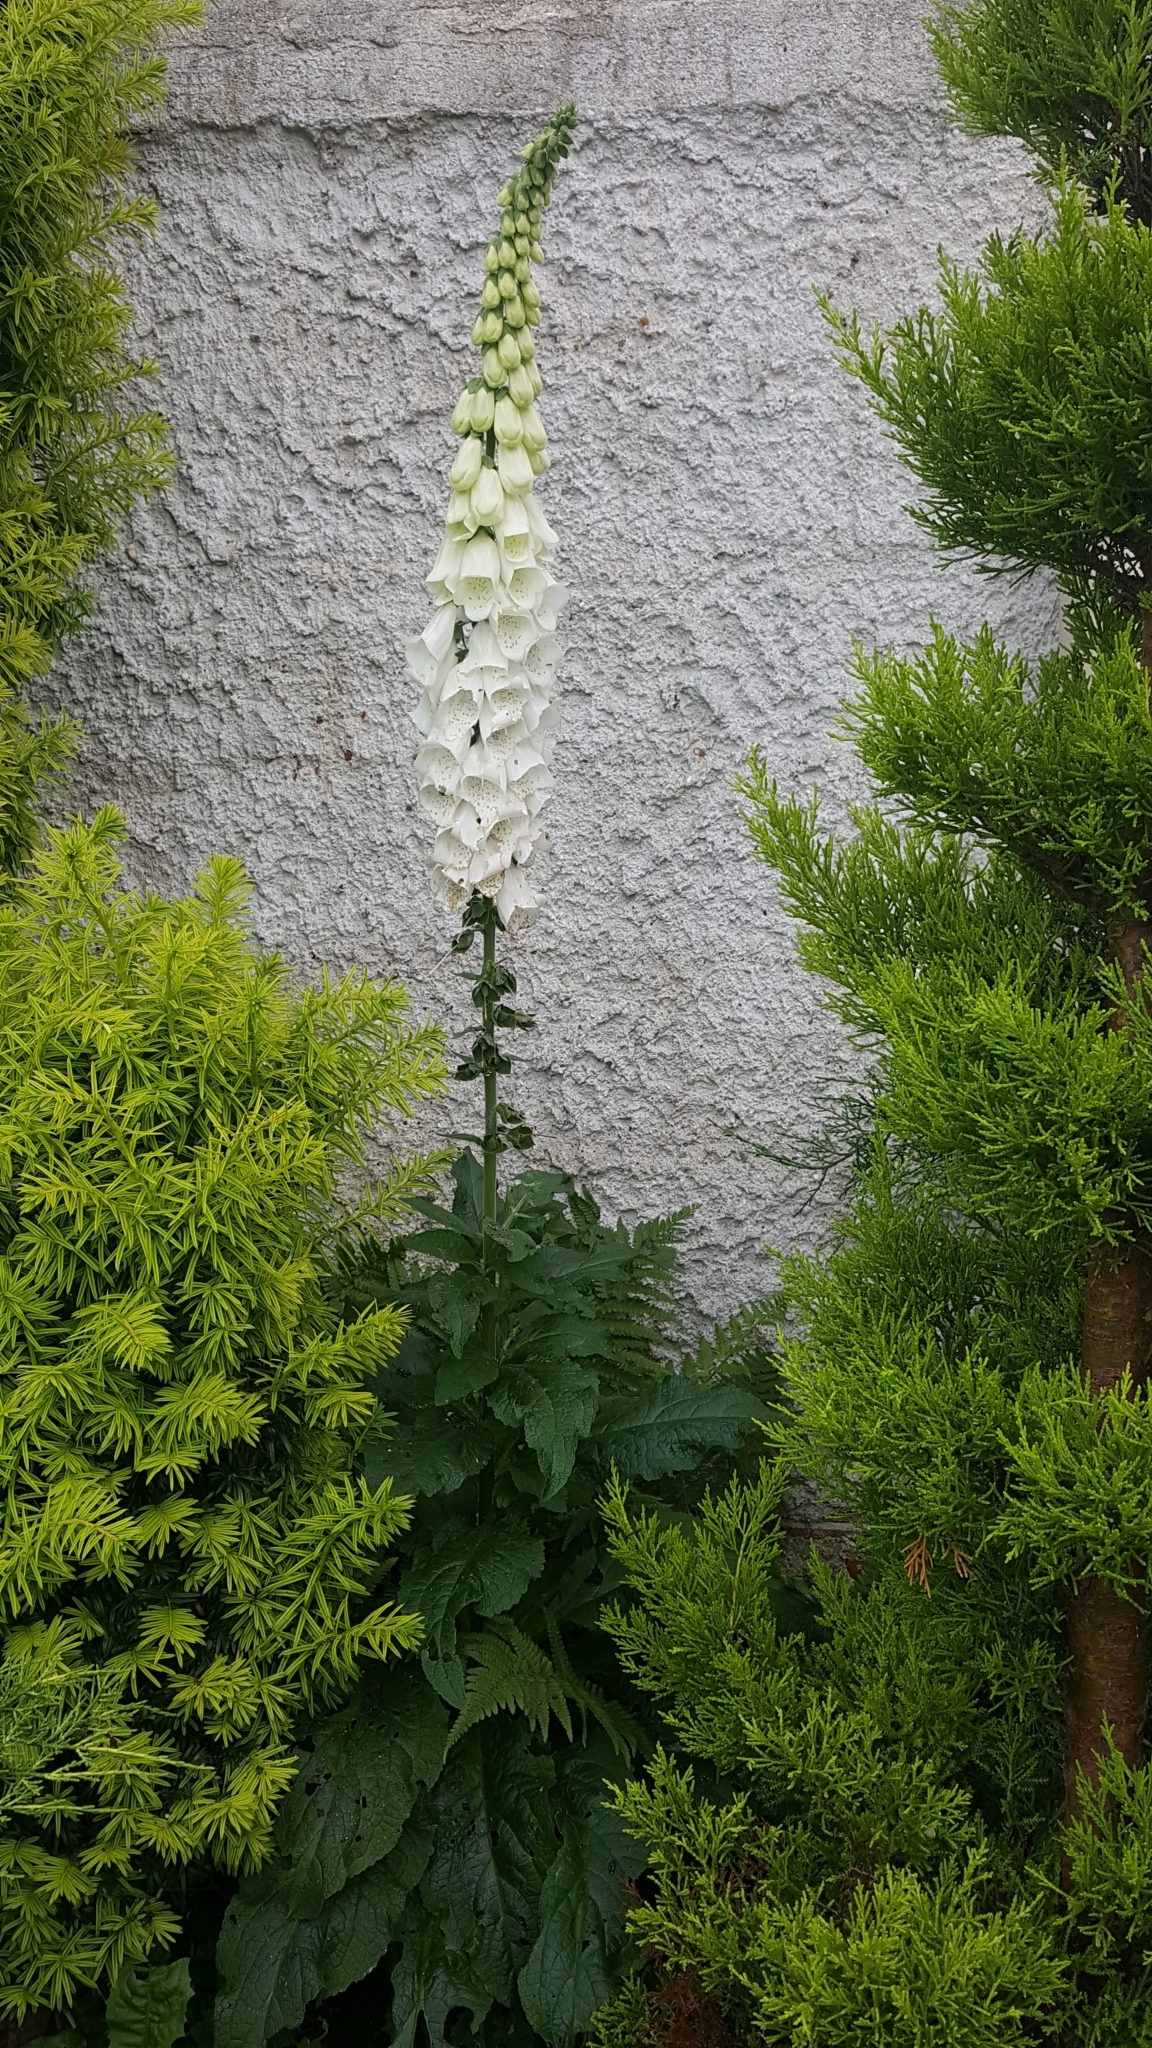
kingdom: Plantae
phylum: Tracheophyta
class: Magnoliopsida
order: Lamiales
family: Plantaginaceae
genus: Digitalis
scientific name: Digitalis purpurea
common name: Foxglove
